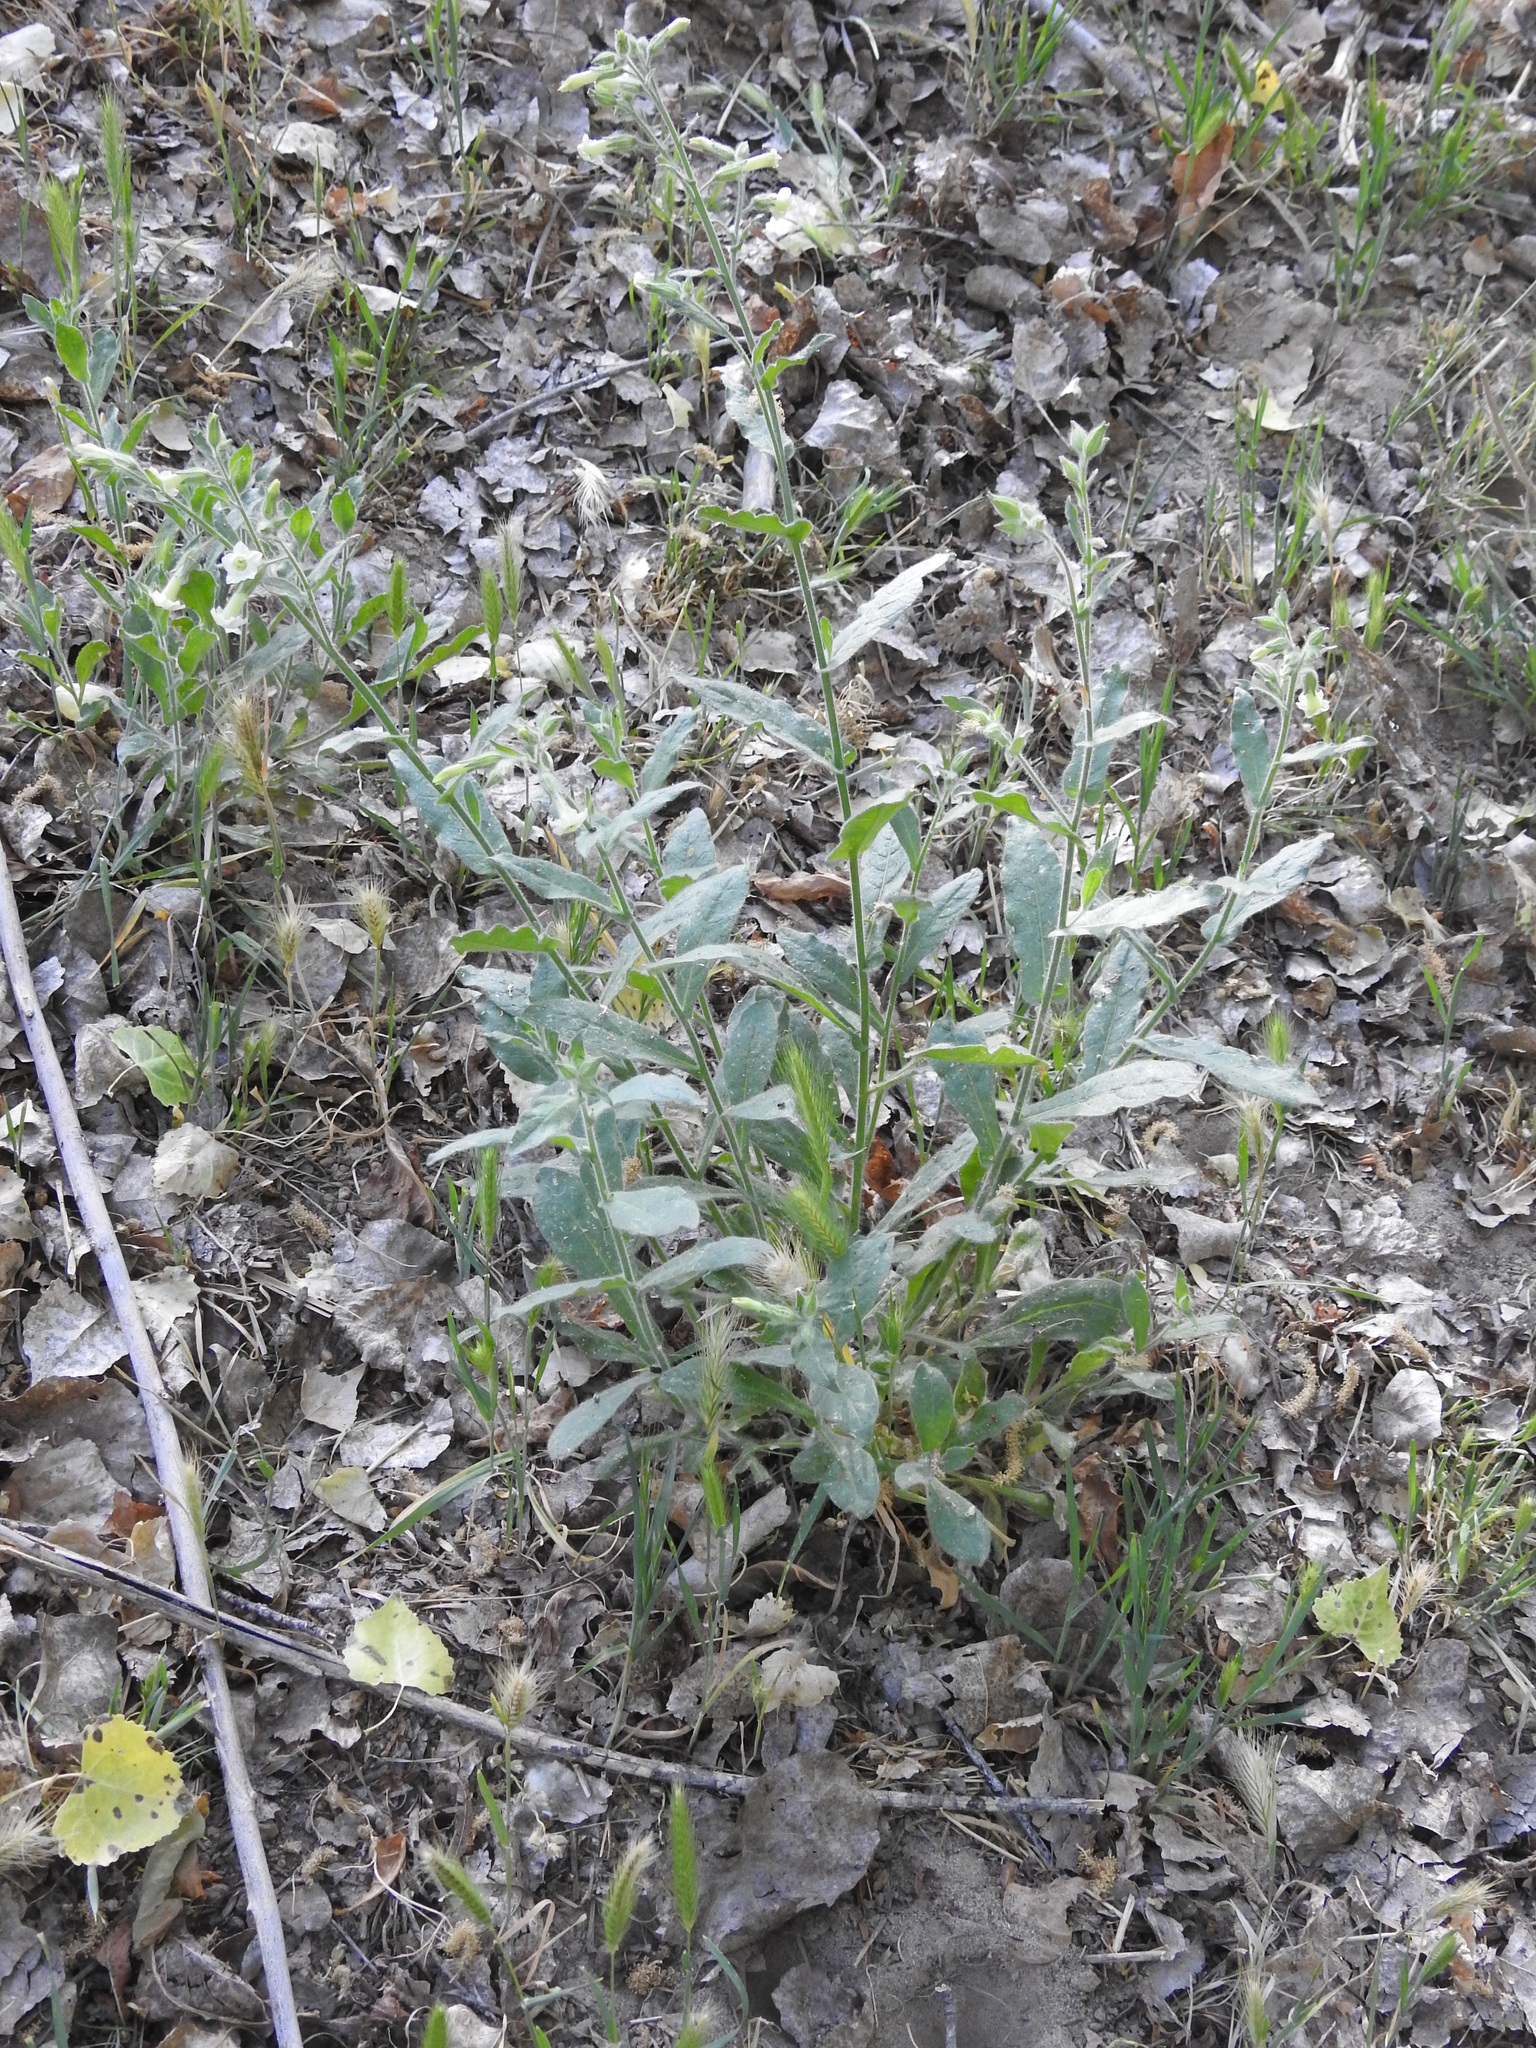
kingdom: Plantae
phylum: Tracheophyta
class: Magnoliopsida
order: Solanales
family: Solanaceae
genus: Nicotiana
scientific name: Nicotiana obtusifolia
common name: Desert tobacco
